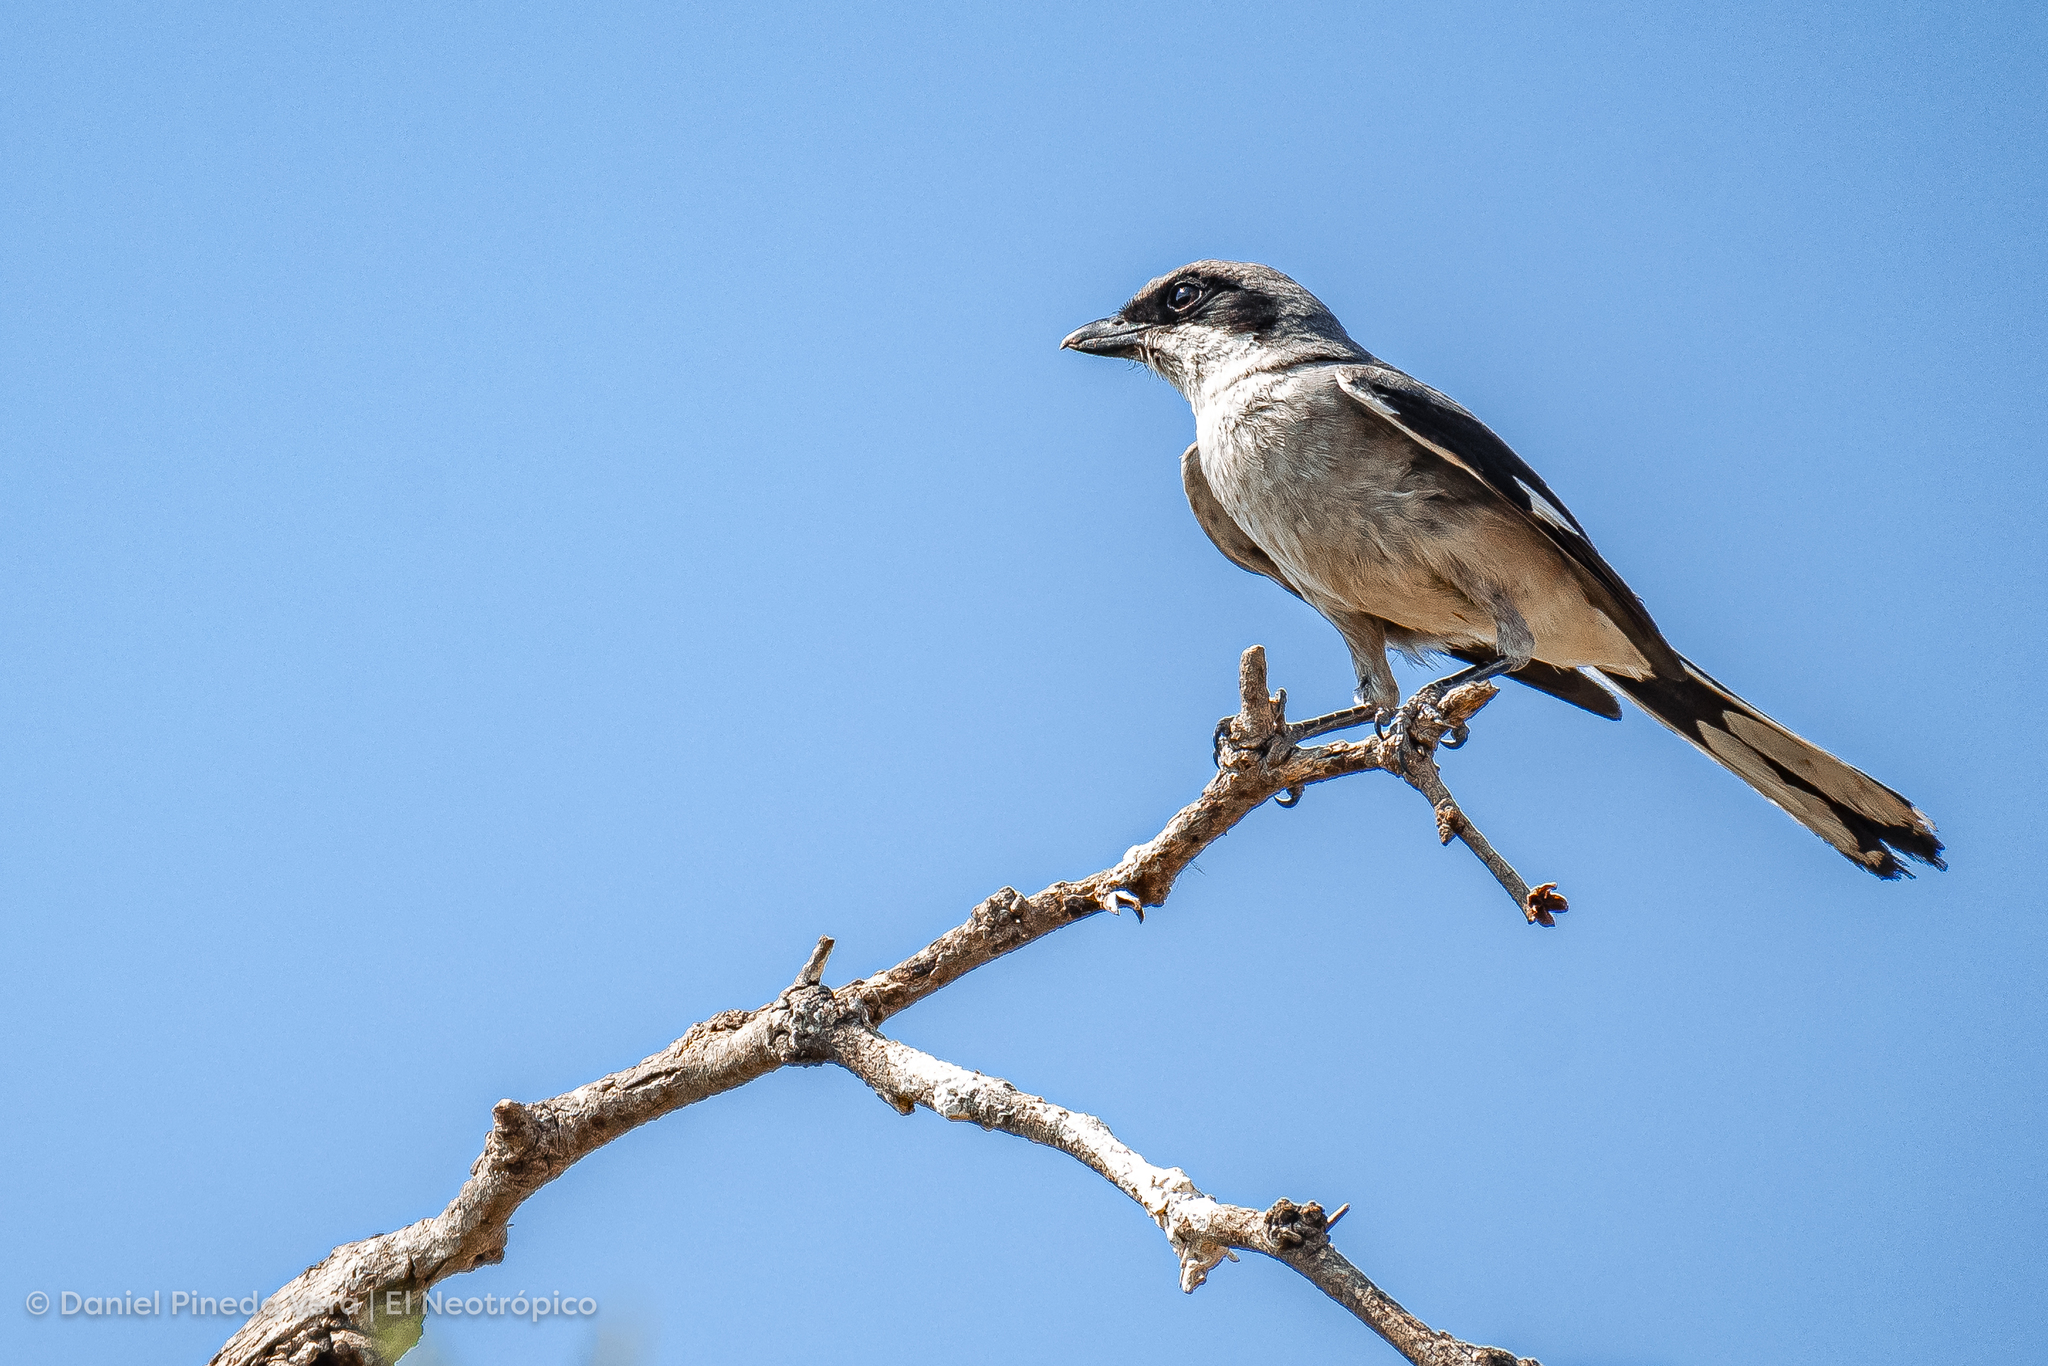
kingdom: Animalia
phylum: Chordata
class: Aves
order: Passeriformes
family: Laniidae
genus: Lanius
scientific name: Lanius ludovicianus
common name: Loggerhead shrike
